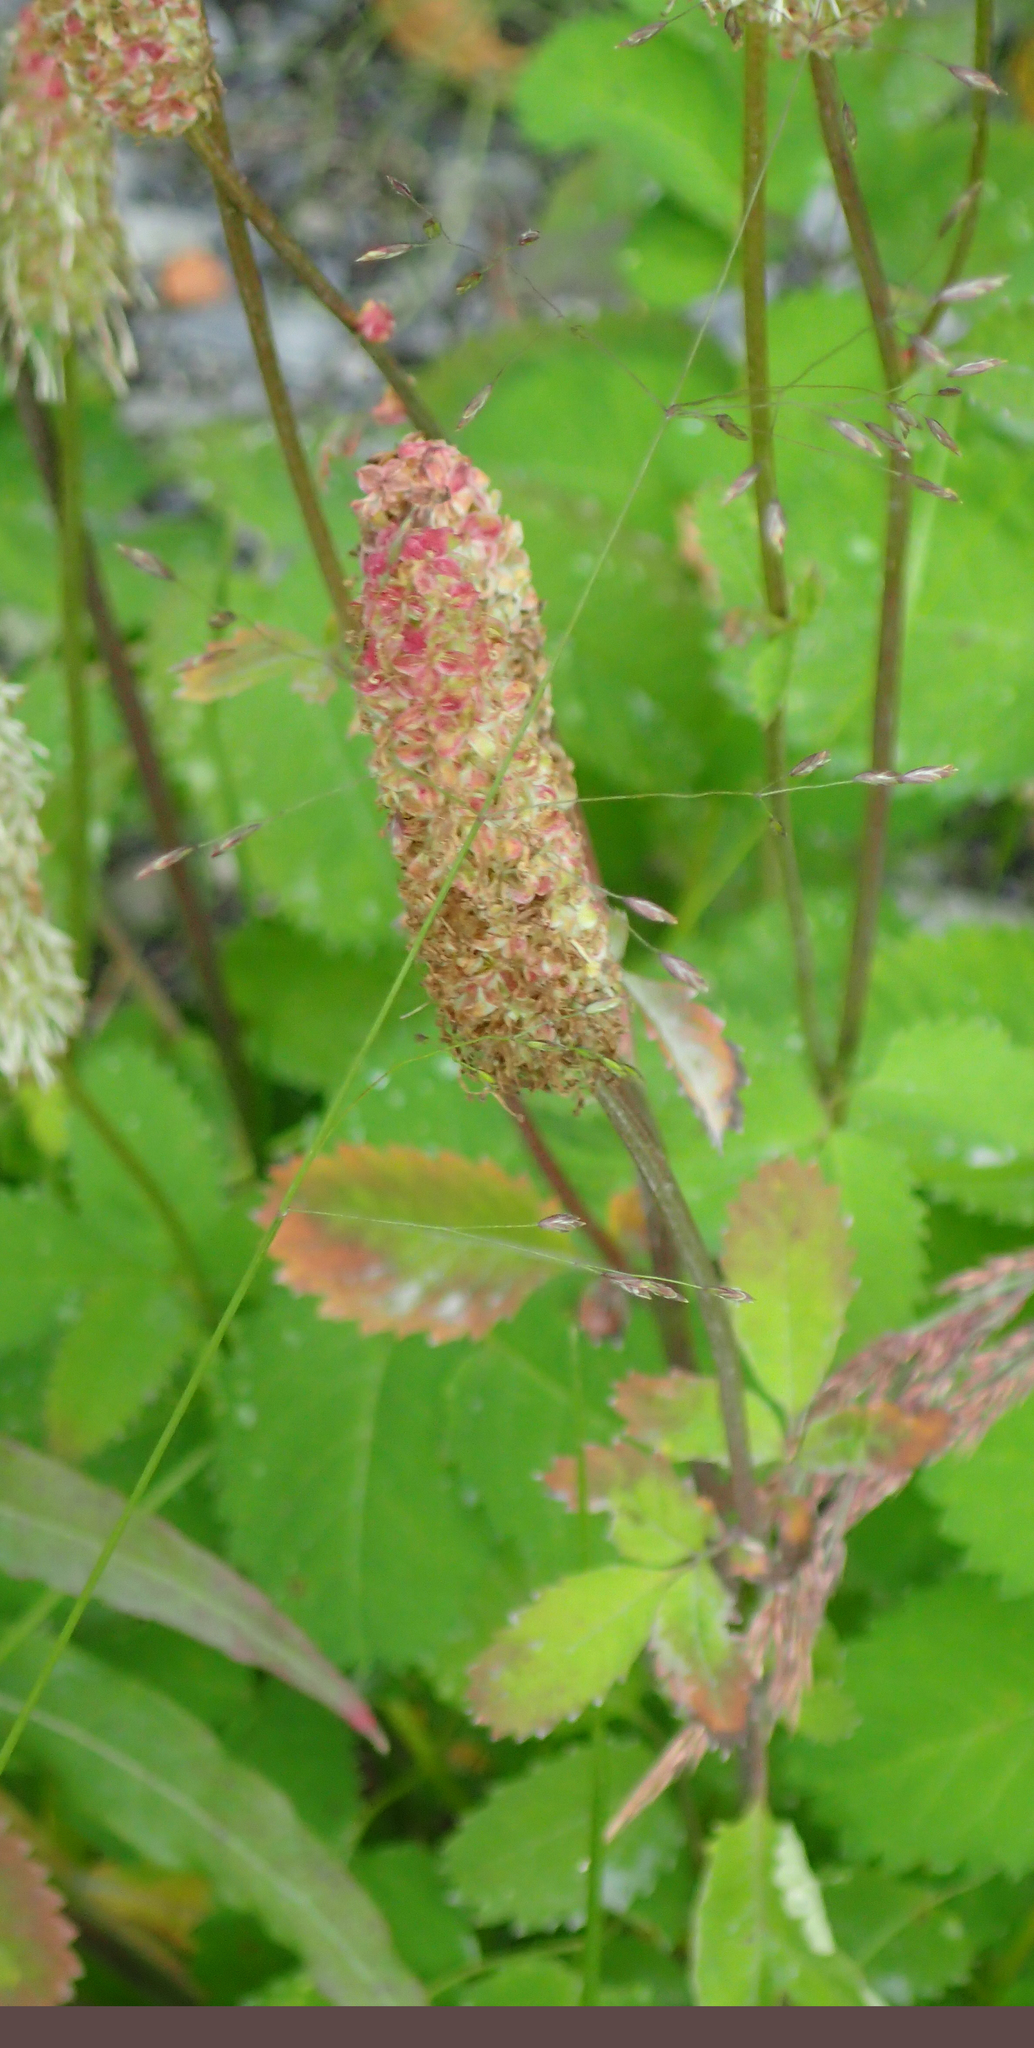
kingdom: Plantae
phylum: Tracheophyta
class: Magnoliopsida
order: Rosales
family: Rosaceae
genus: Sanguisorba
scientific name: Sanguisorba stipulata
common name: Sitka burnet
